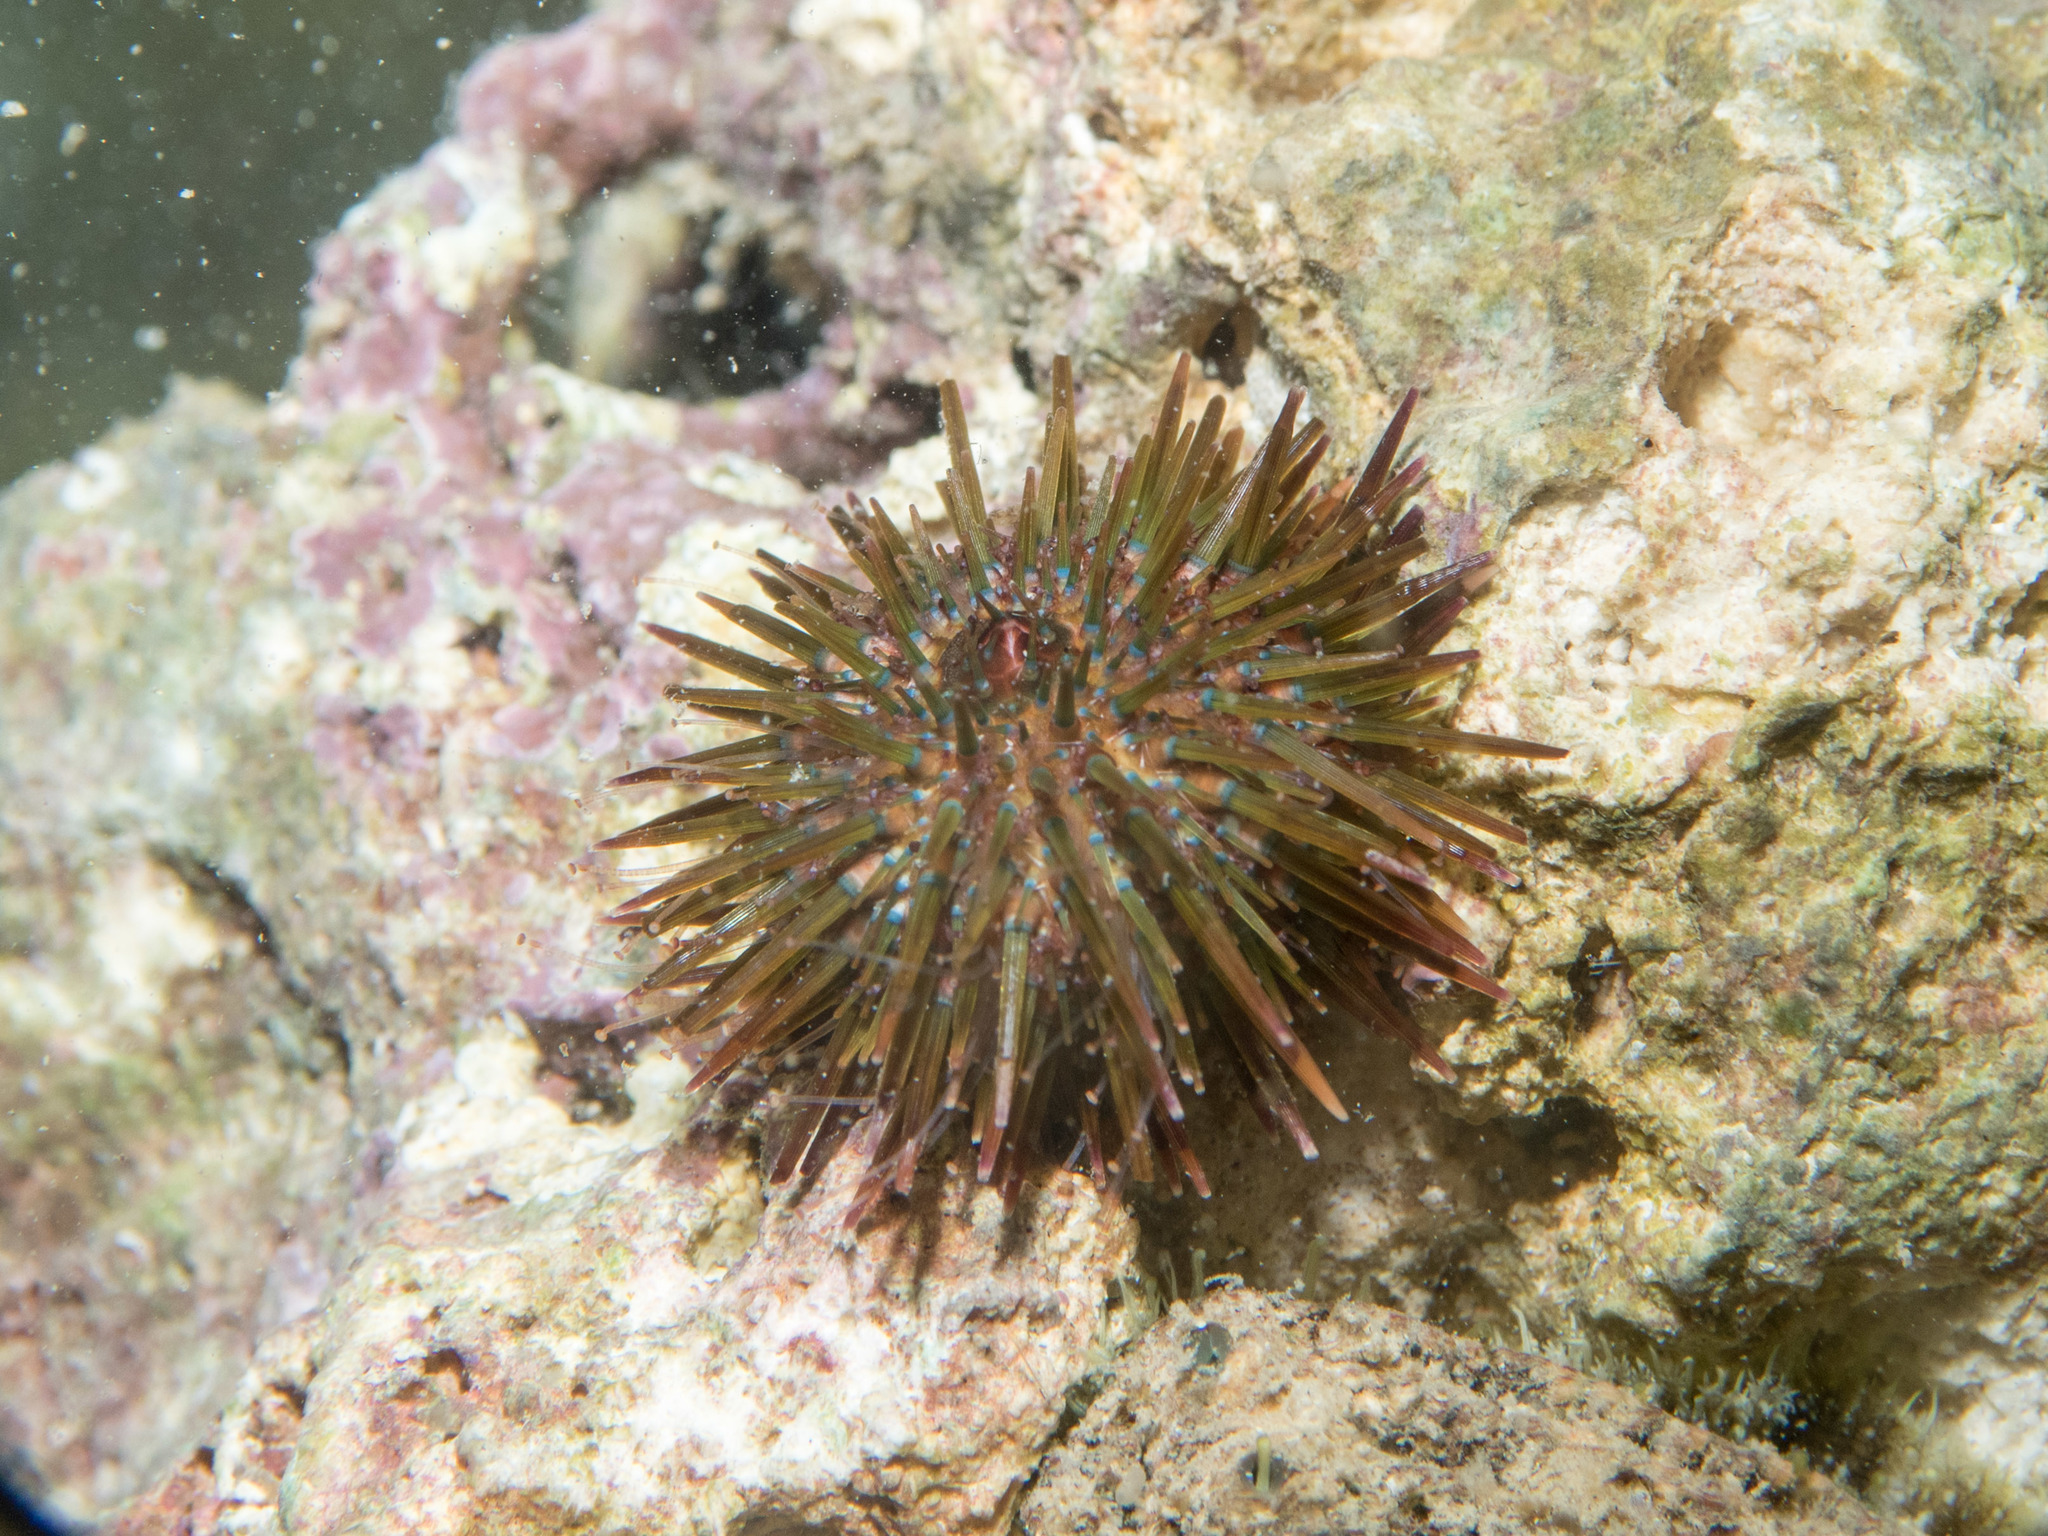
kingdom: Animalia
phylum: Echinodermata
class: Echinoidea
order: Camarodonta
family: Parechinidae
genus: Paracentrotus
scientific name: Paracentrotus lividus
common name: Purple sea urchin
